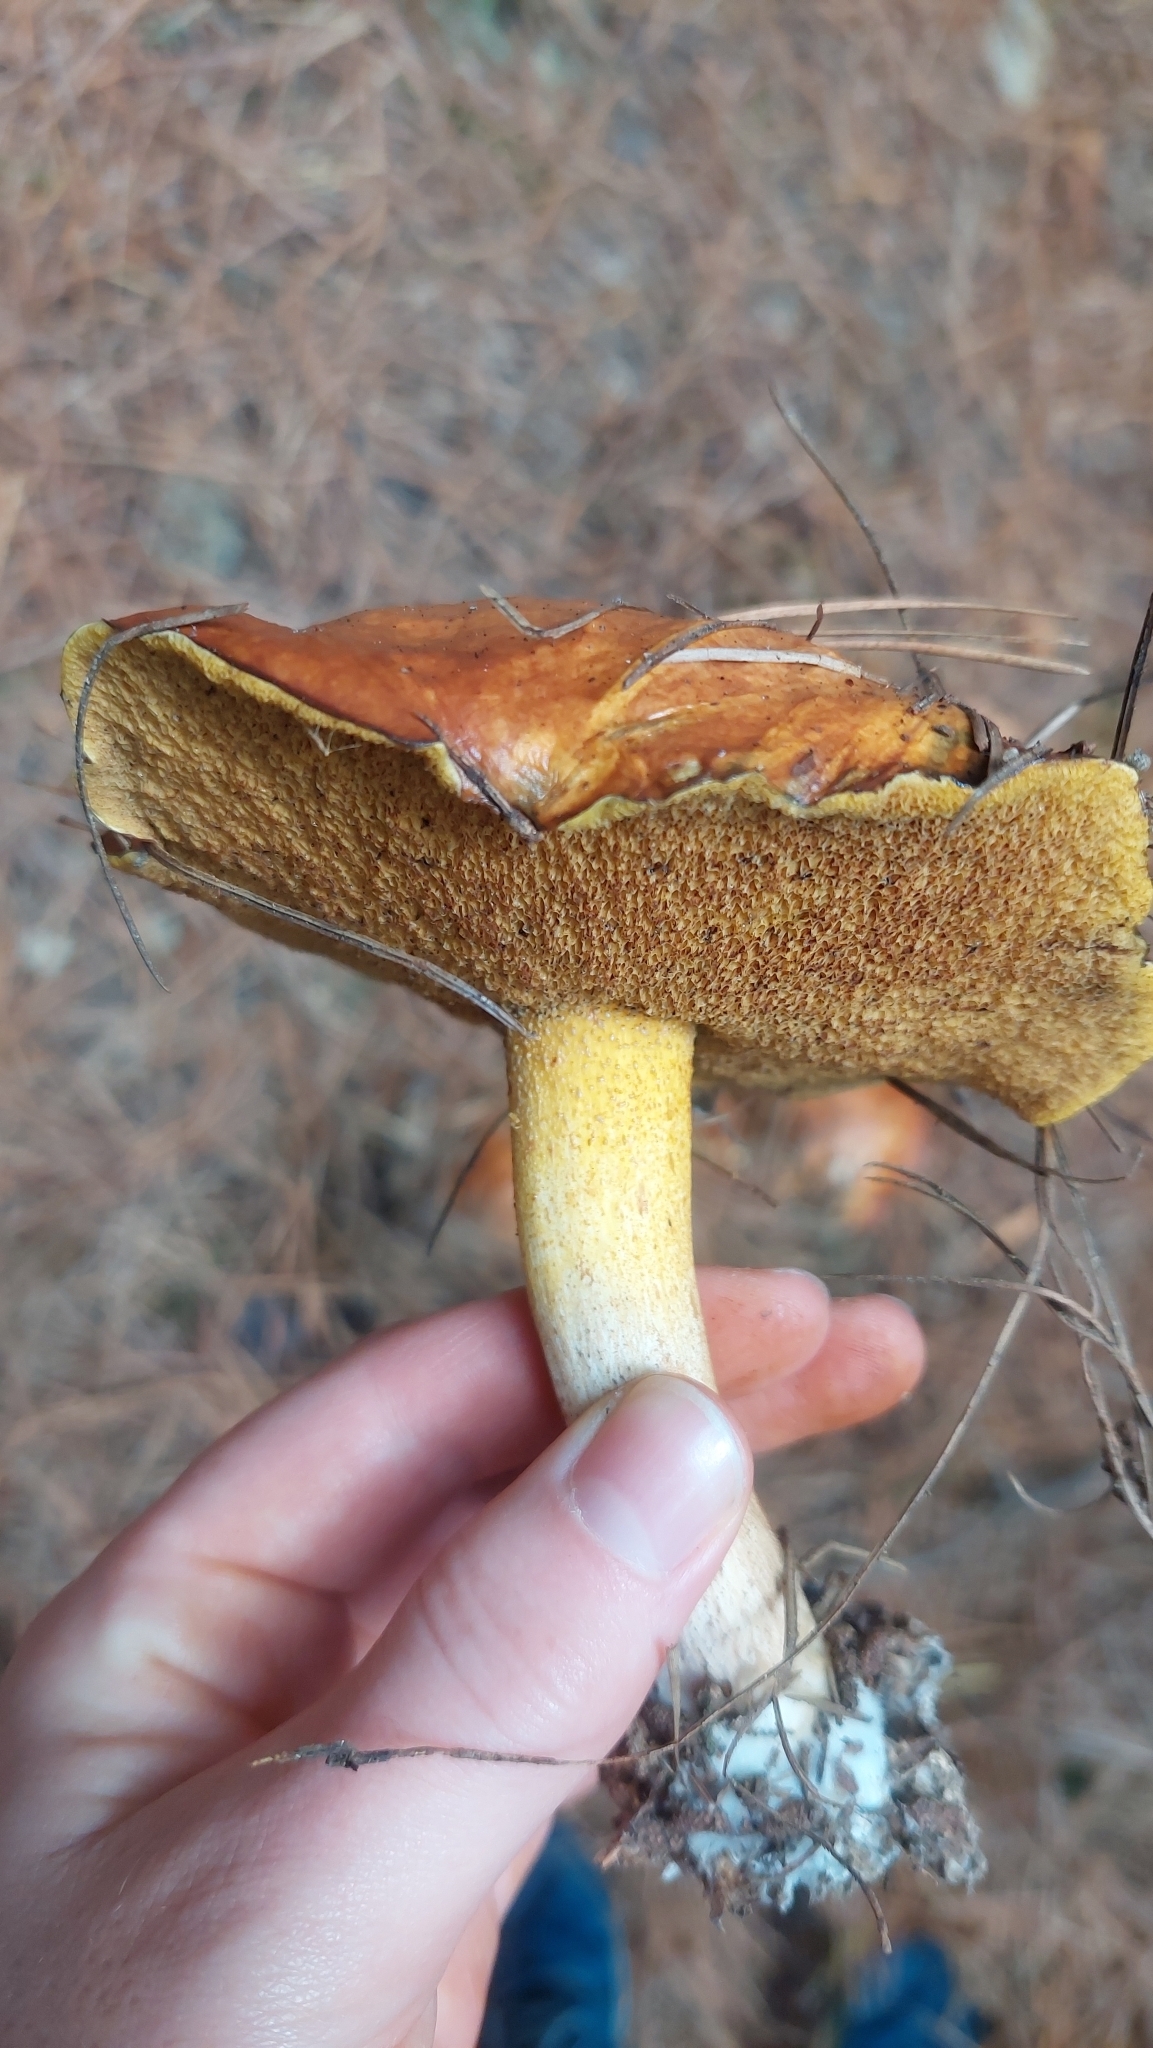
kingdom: Fungi
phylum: Basidiomycota
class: Agaricomycetes
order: Boletales
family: Suillaceae
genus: Suillus
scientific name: Suillus granulatus
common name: Weeping bolete
